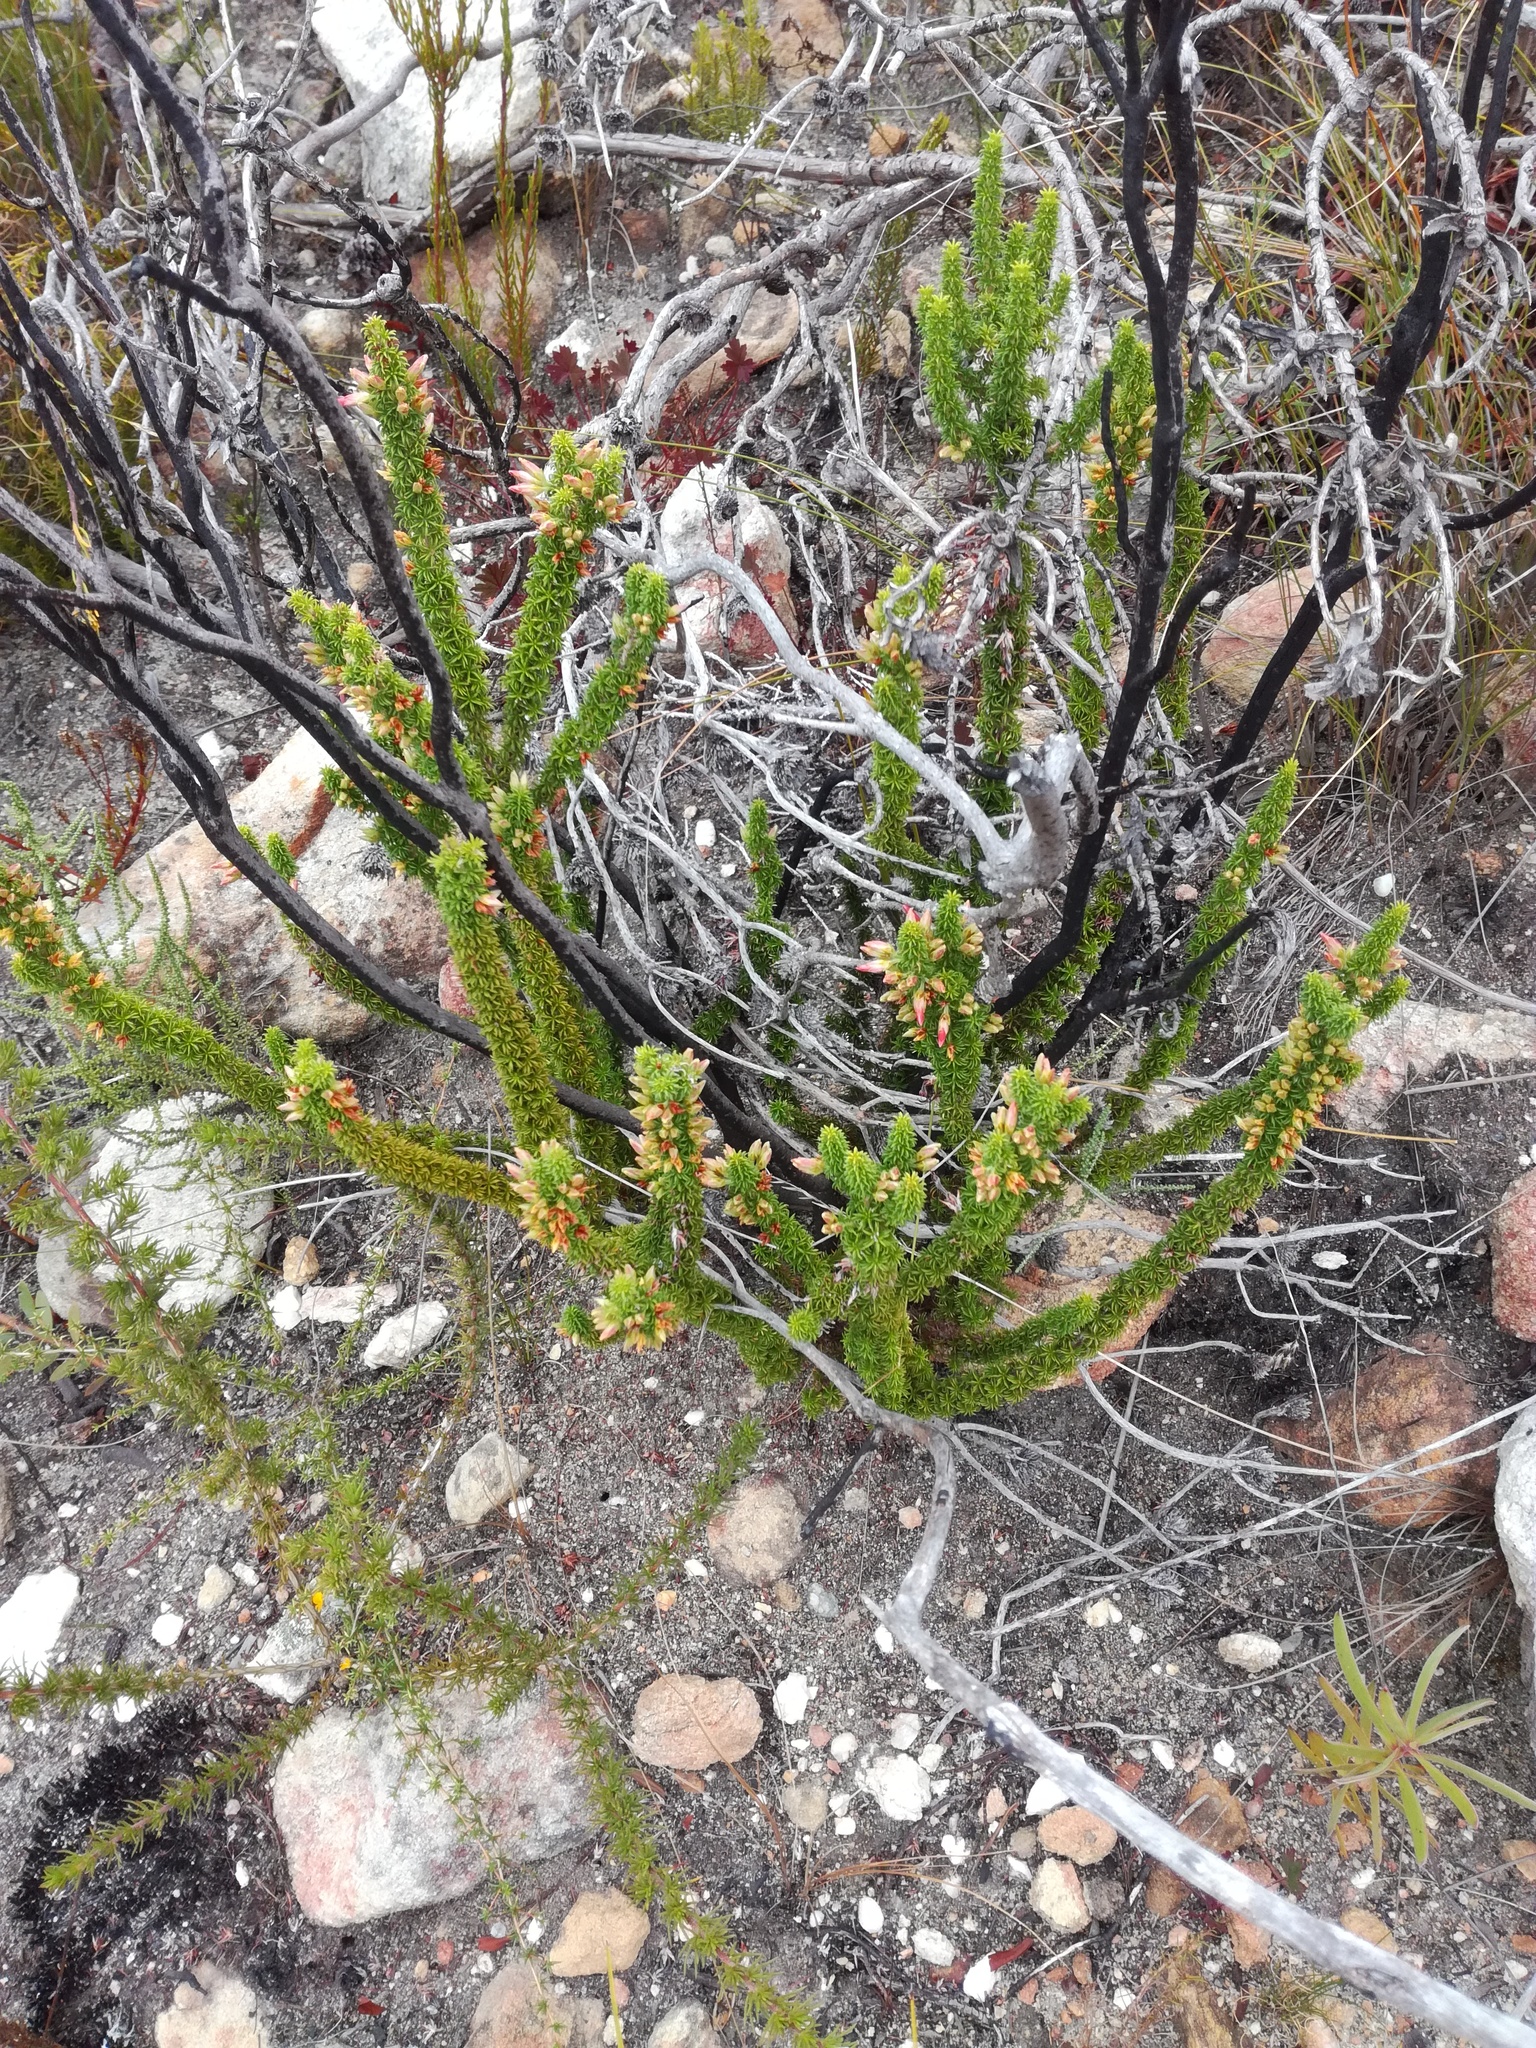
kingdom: Plantae
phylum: Tracheophyta
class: Magnoliopsida
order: Ericales
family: Ericaceae
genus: Erica
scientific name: Erica coccinea
